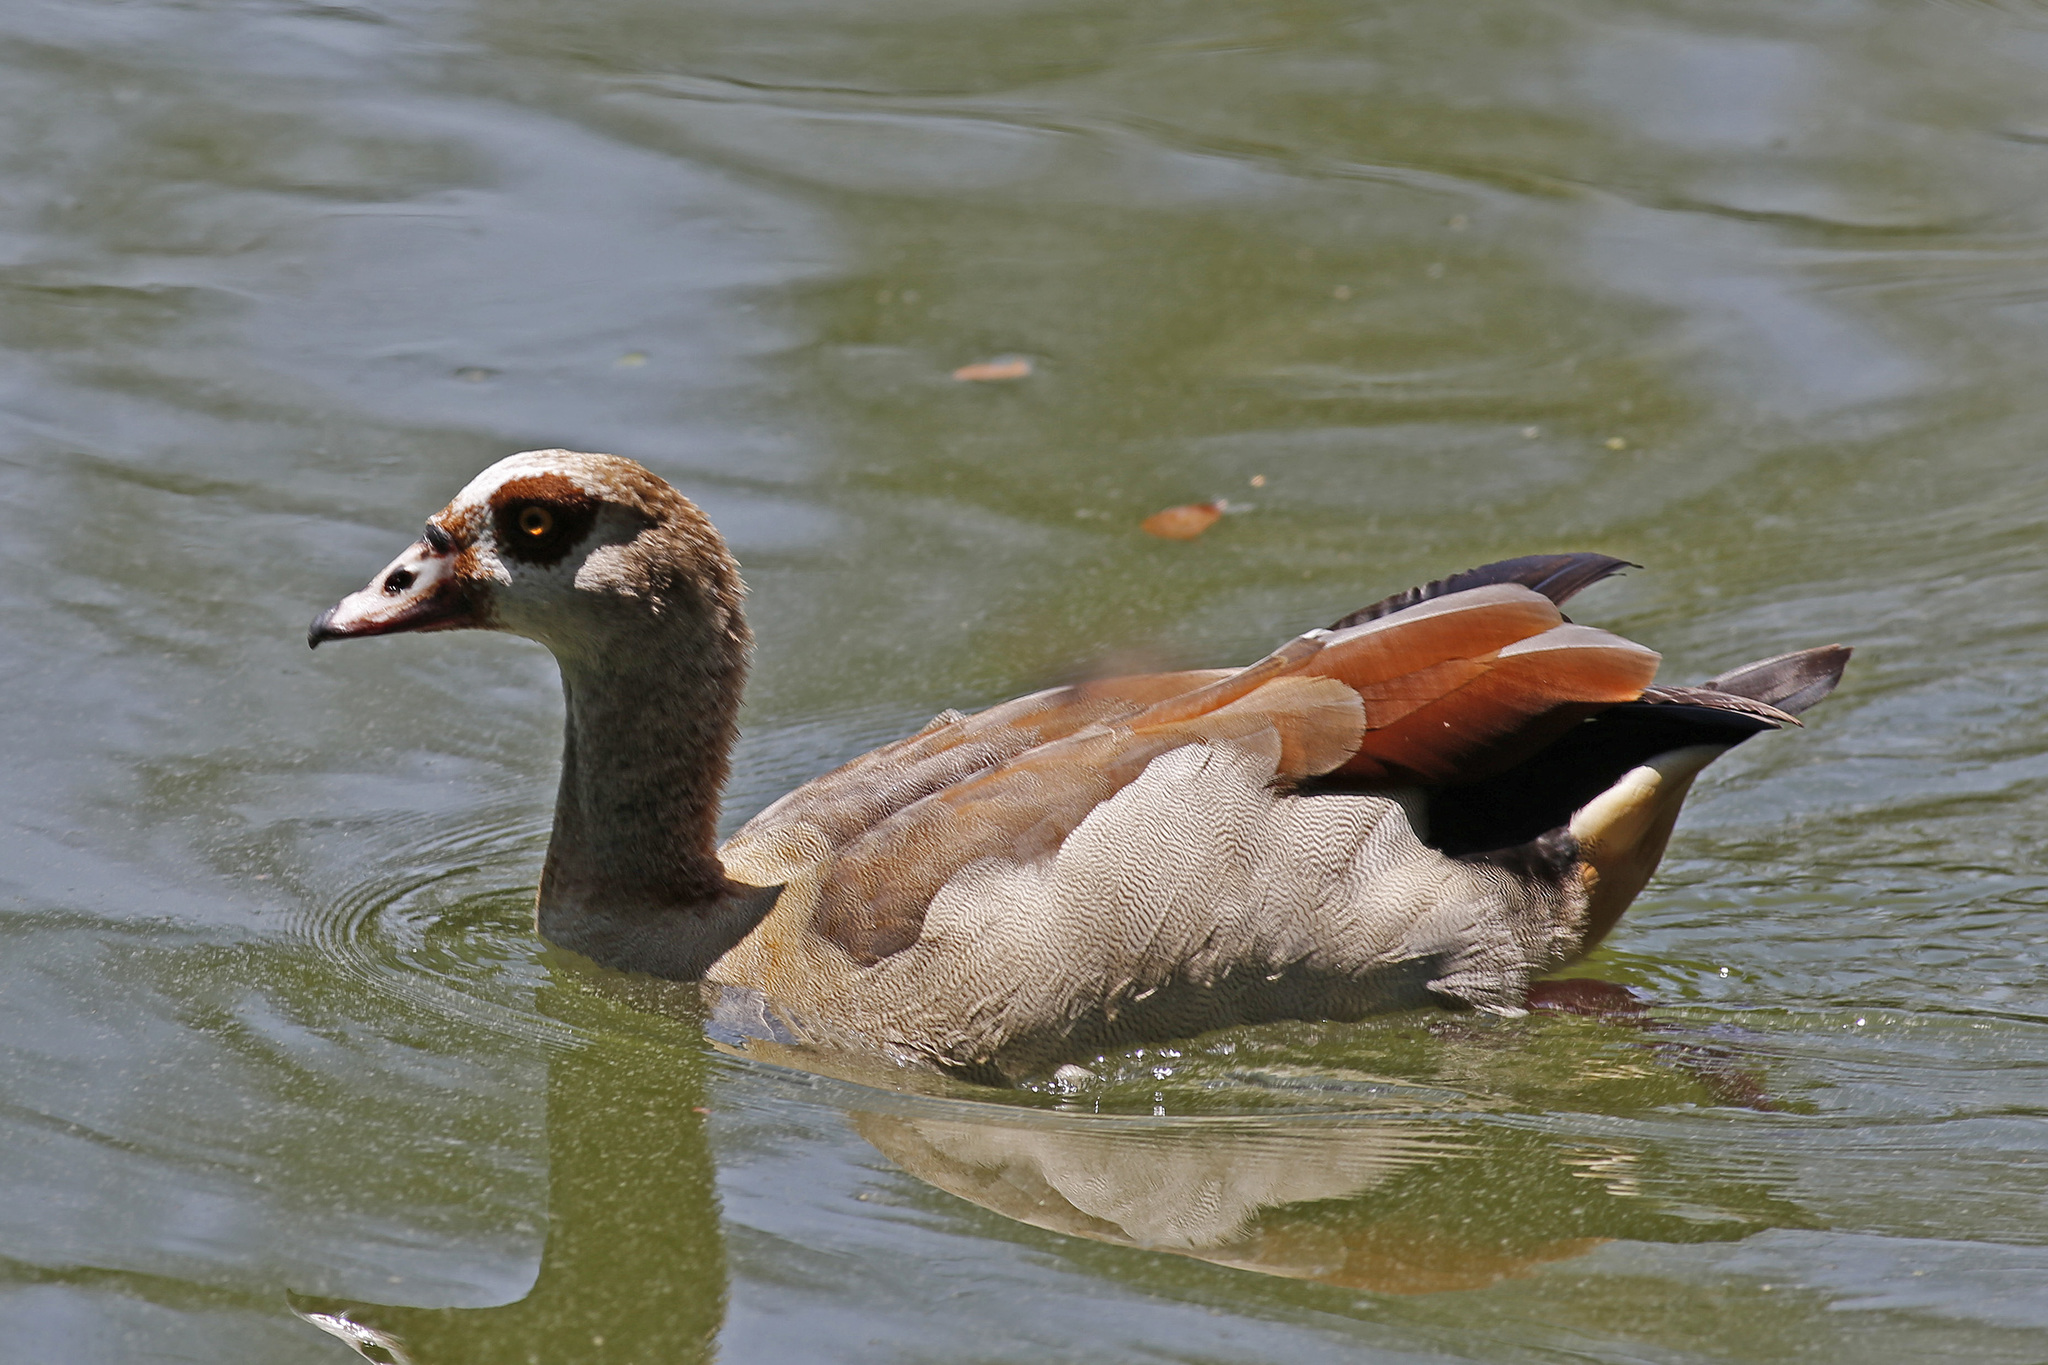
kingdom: Animalia
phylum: Chordata
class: Aves
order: Anseriformes
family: Anatidae
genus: Alopochen
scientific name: Alopochen aegyptiaca
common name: Egyptian goose
